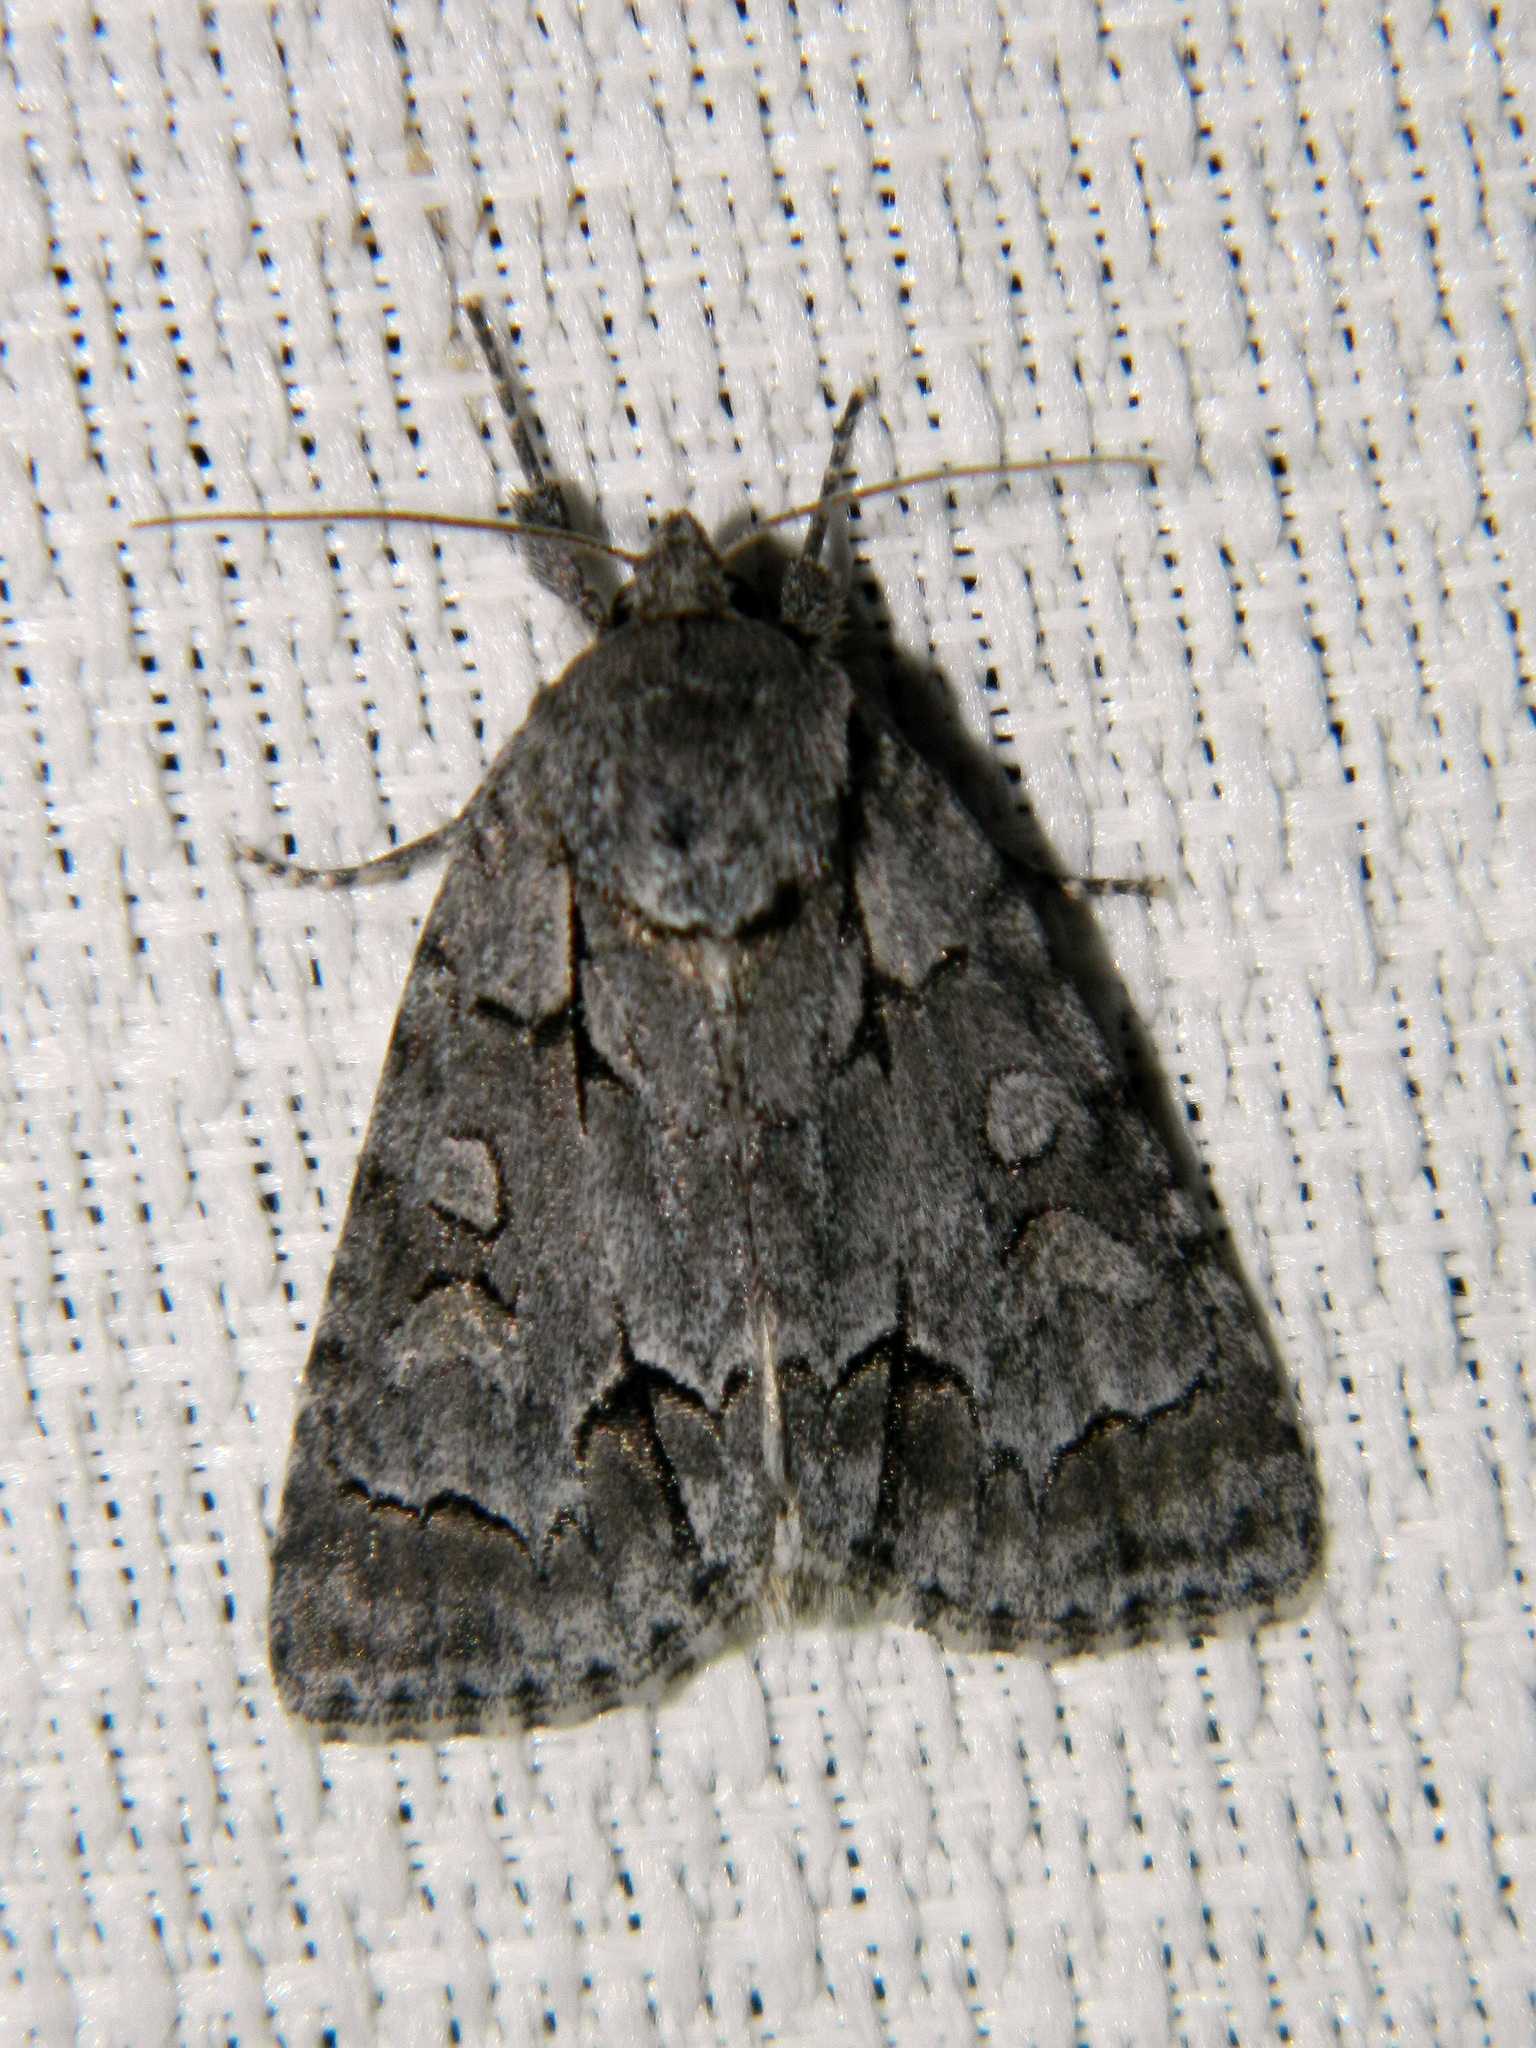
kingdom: Animalia
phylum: Arthropoda
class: Insecta
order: Lepidoptera
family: Noctuidae
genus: Acronicta
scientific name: Acronicta grisea
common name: Gray dagger
